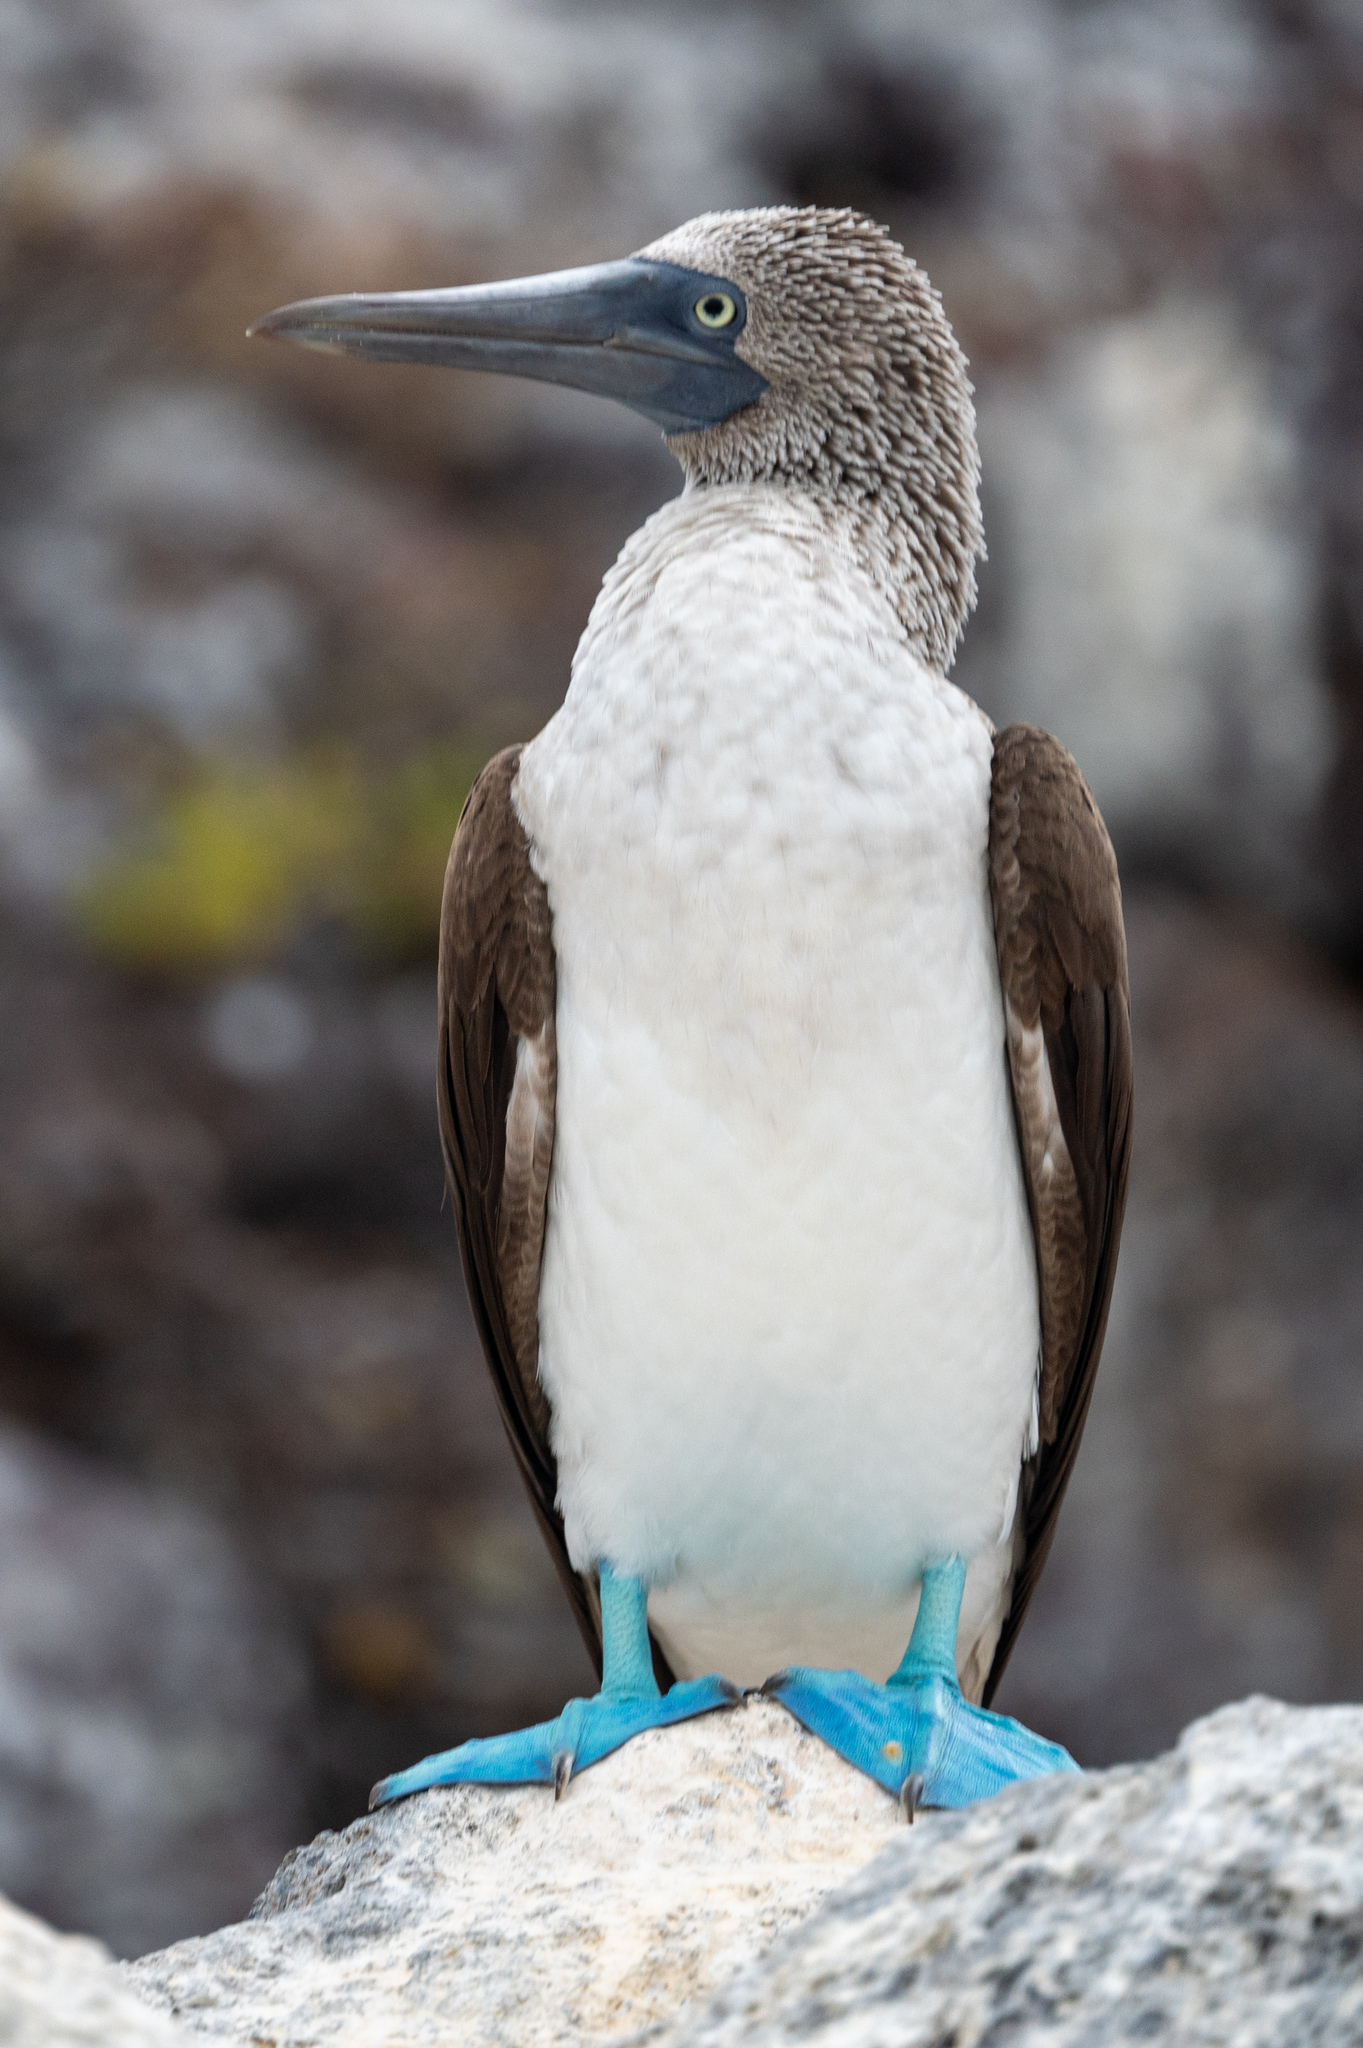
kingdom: Animalia
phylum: Chordata
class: Aves
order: Suliformes
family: Sulidae
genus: Sula
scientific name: Sula nebouxii
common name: Blue-footed booby
